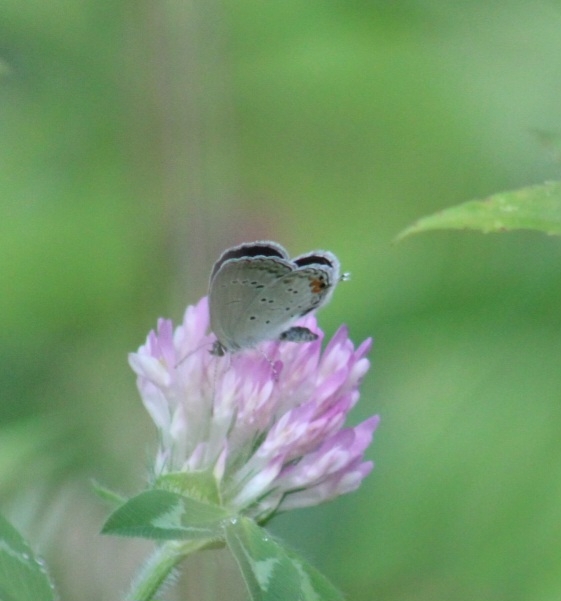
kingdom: Animalia
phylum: Arthropoda
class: Insecta
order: Lepidoptera
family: Lycaenidae
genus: Elkalyce
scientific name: Elkalyce comyntas
